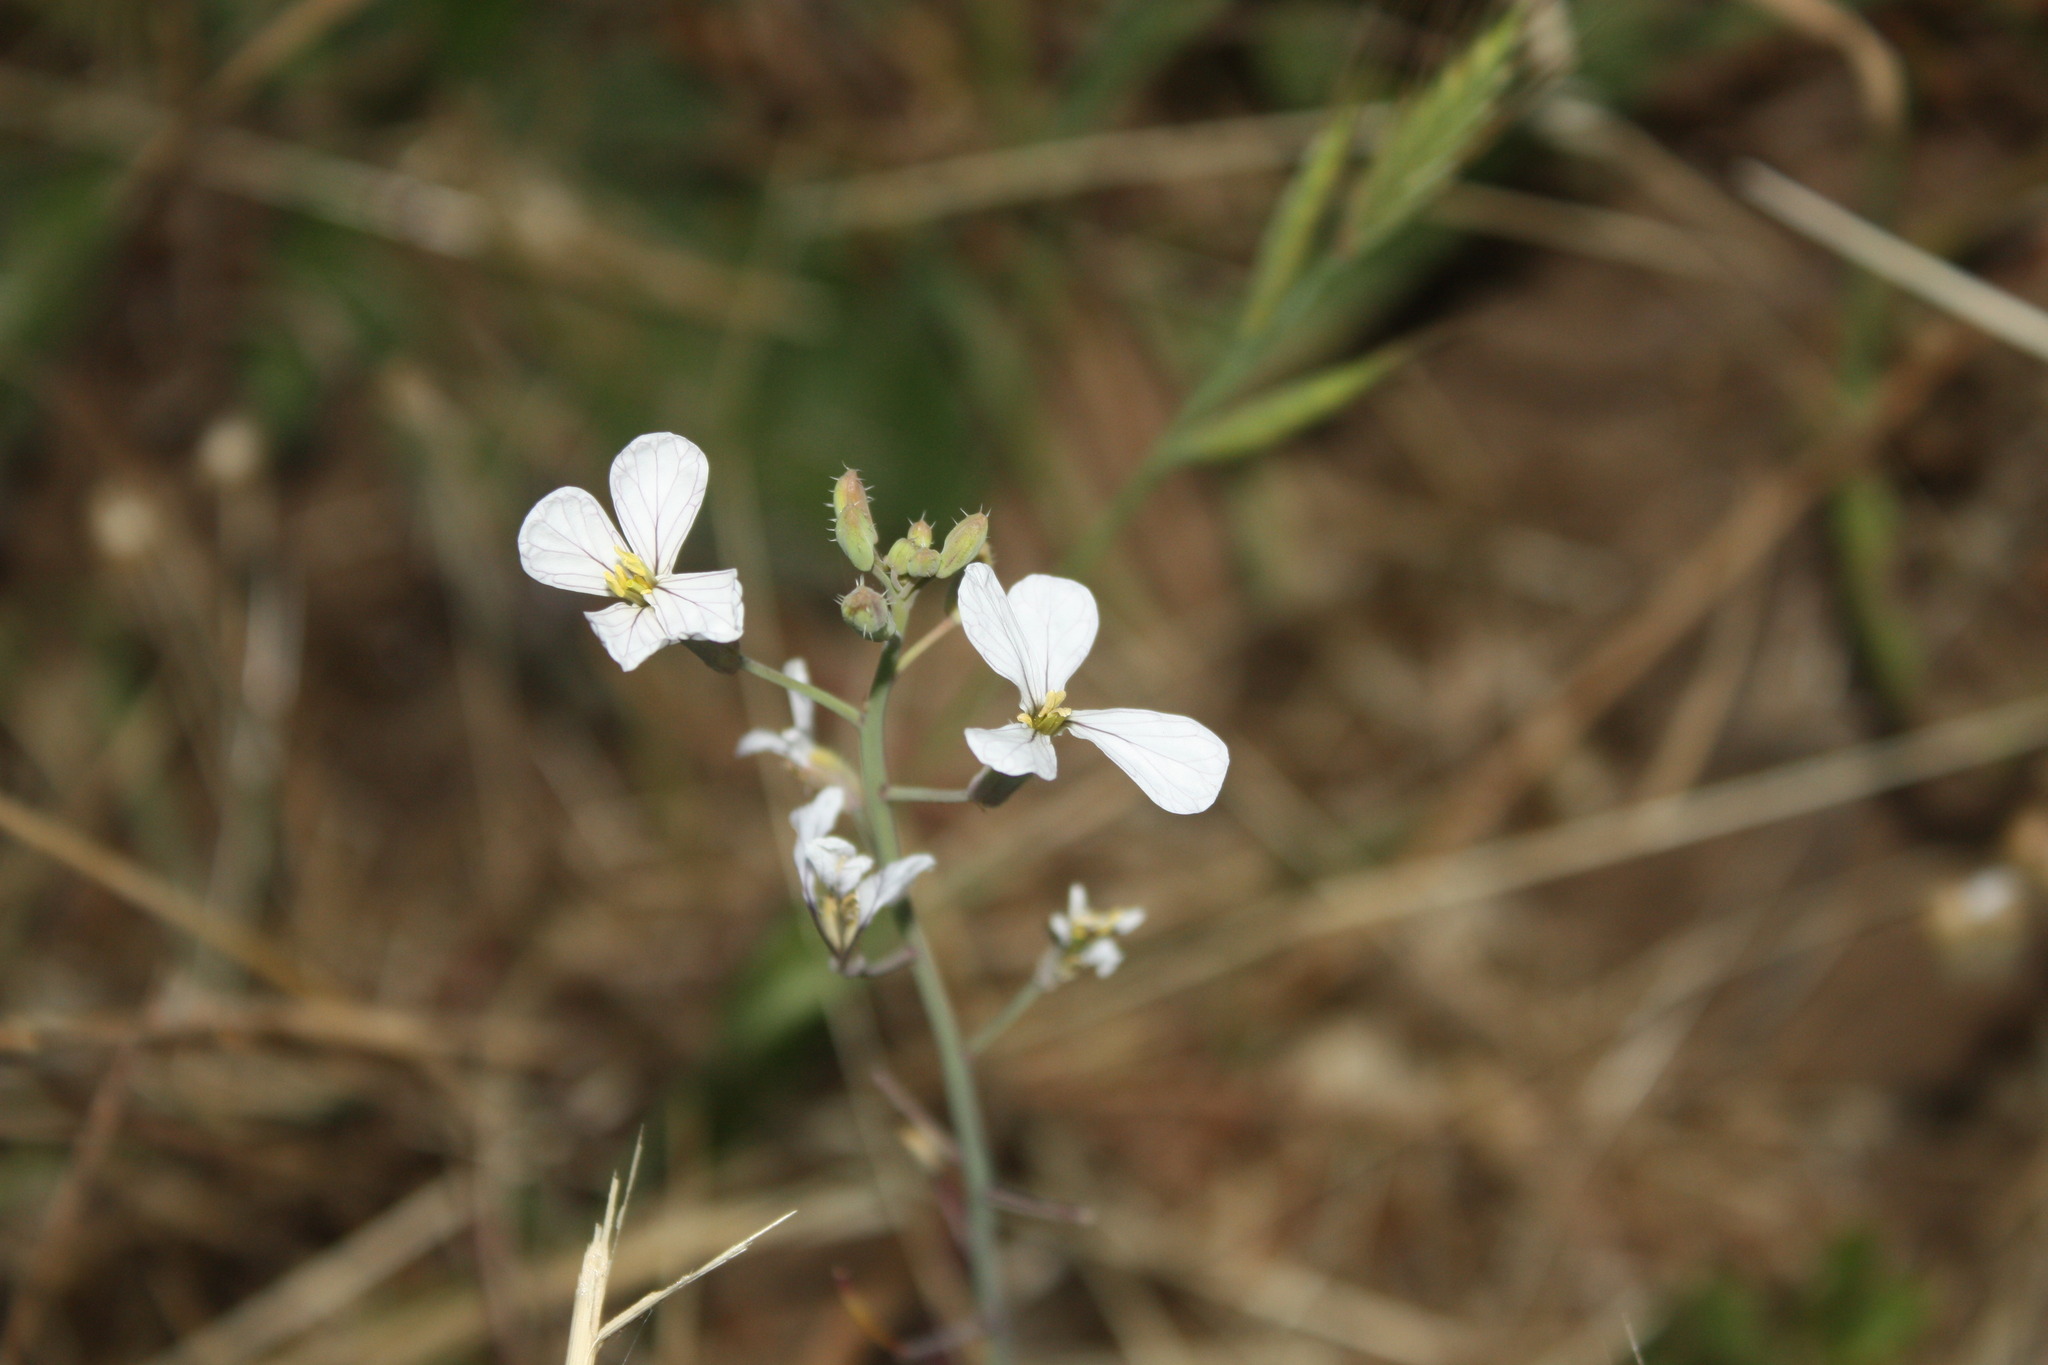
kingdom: Plantae
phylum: Tracheophyta
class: Magnoliopsida
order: Brassicales
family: Brassicaceae
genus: Raphanus
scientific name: Raphanus sativus
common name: Cultivated radish
